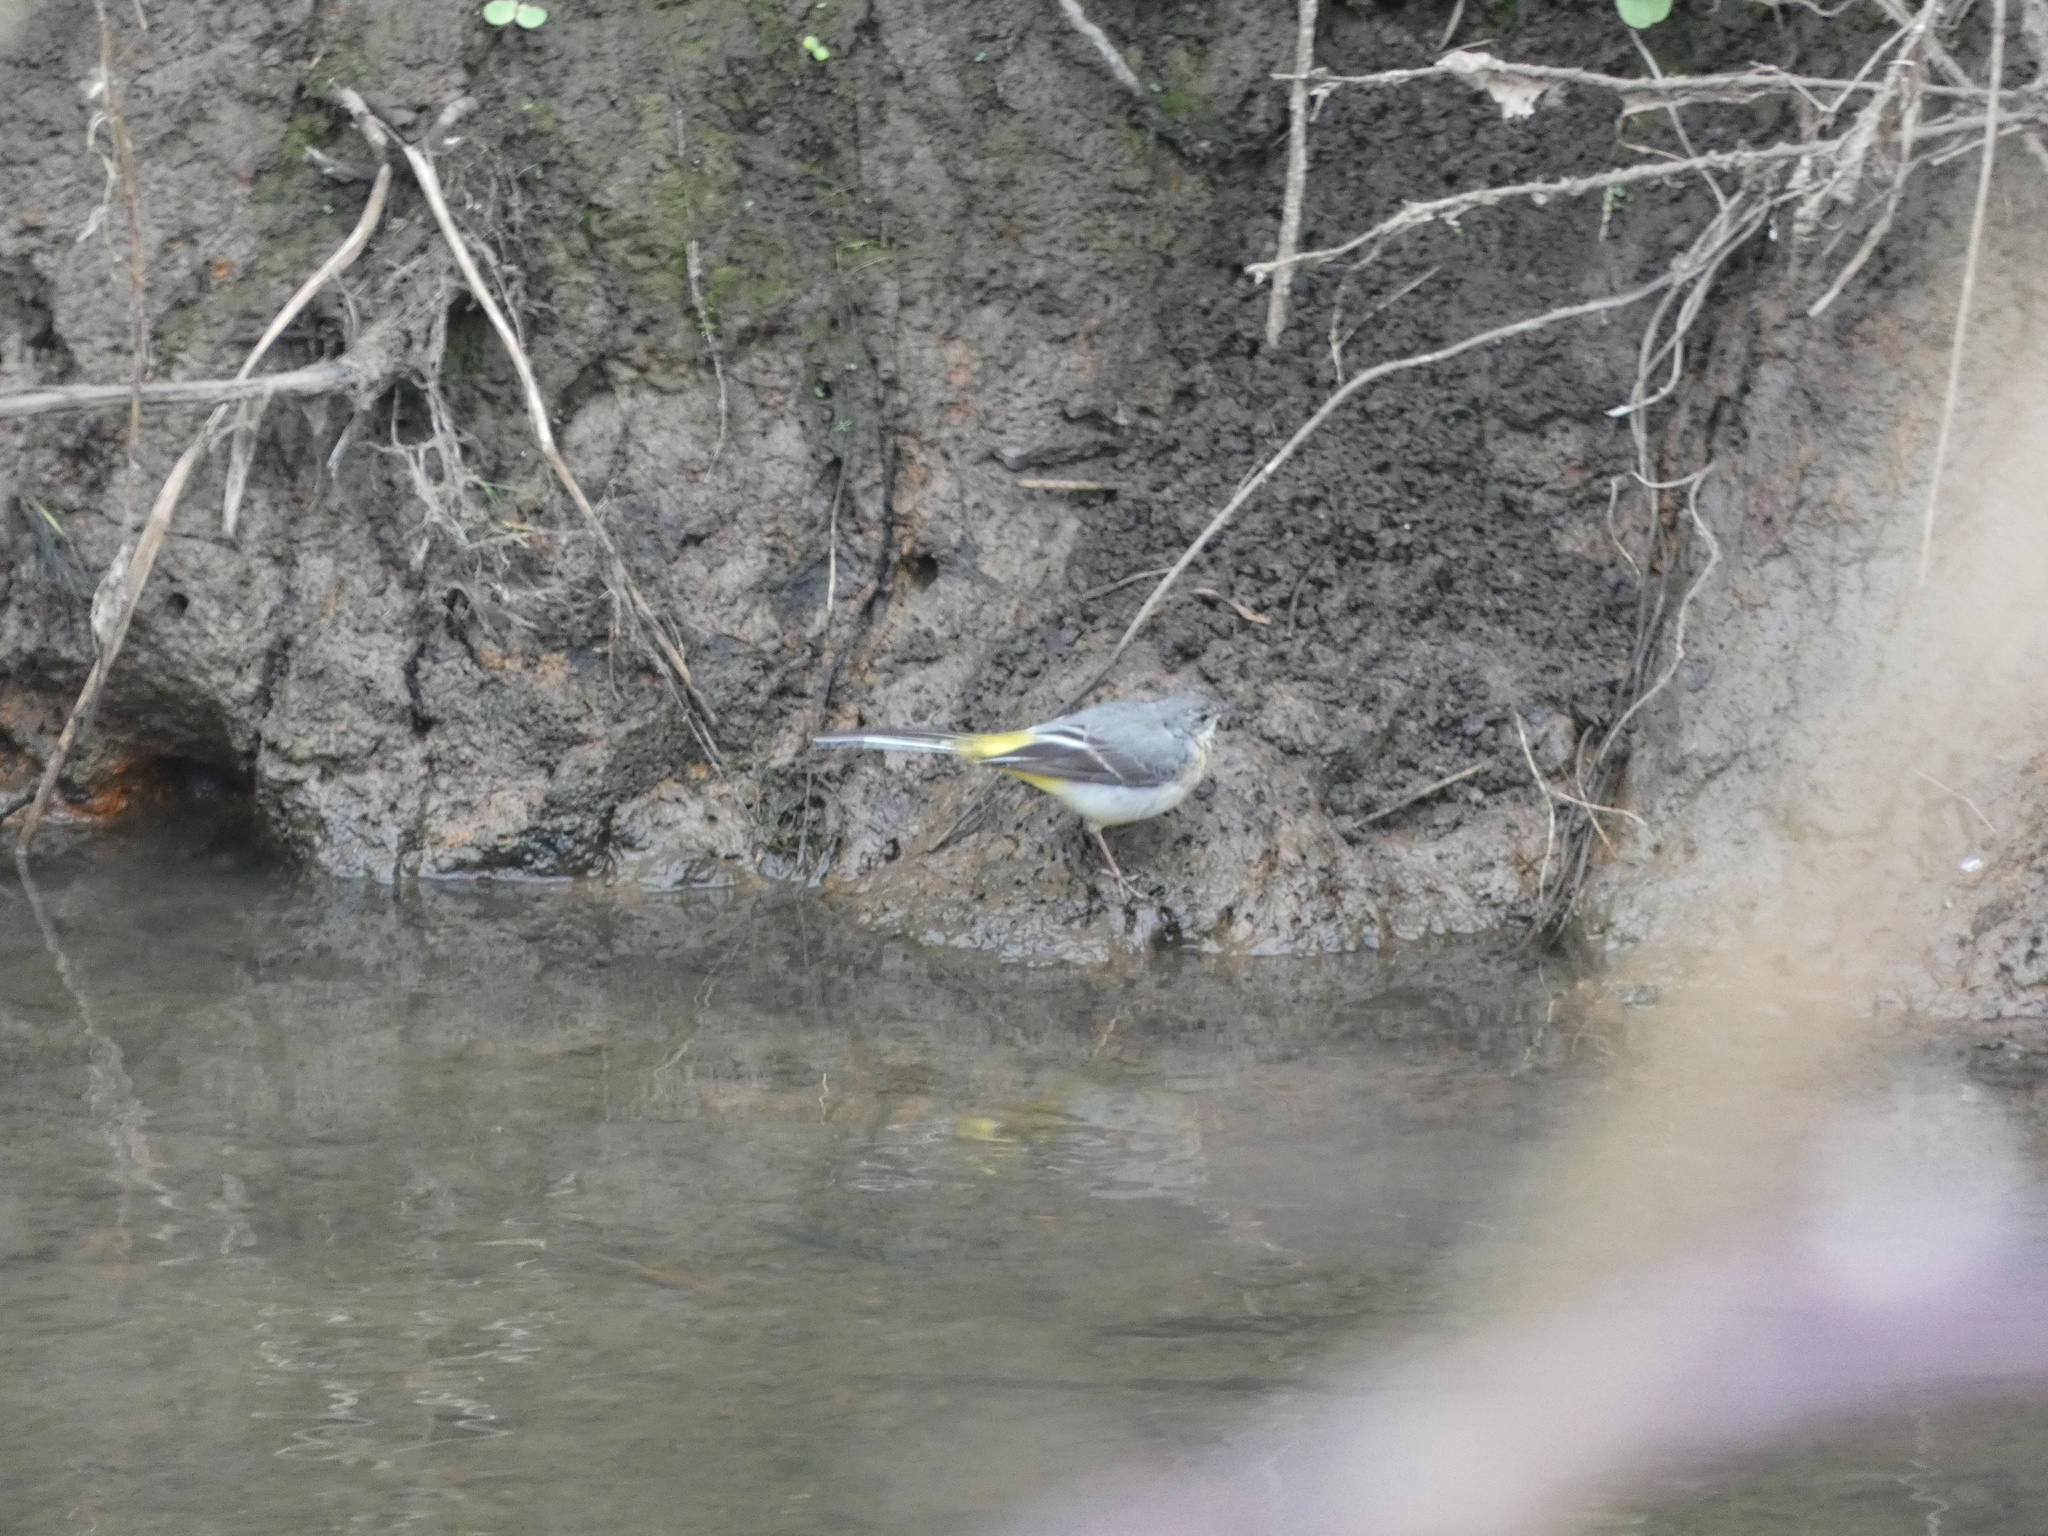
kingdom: Animalia
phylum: Chordata
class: Aves
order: Passeriformes
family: Motacillidae
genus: Motacilla
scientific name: Motacilla cinerea
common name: Grey wagtail
